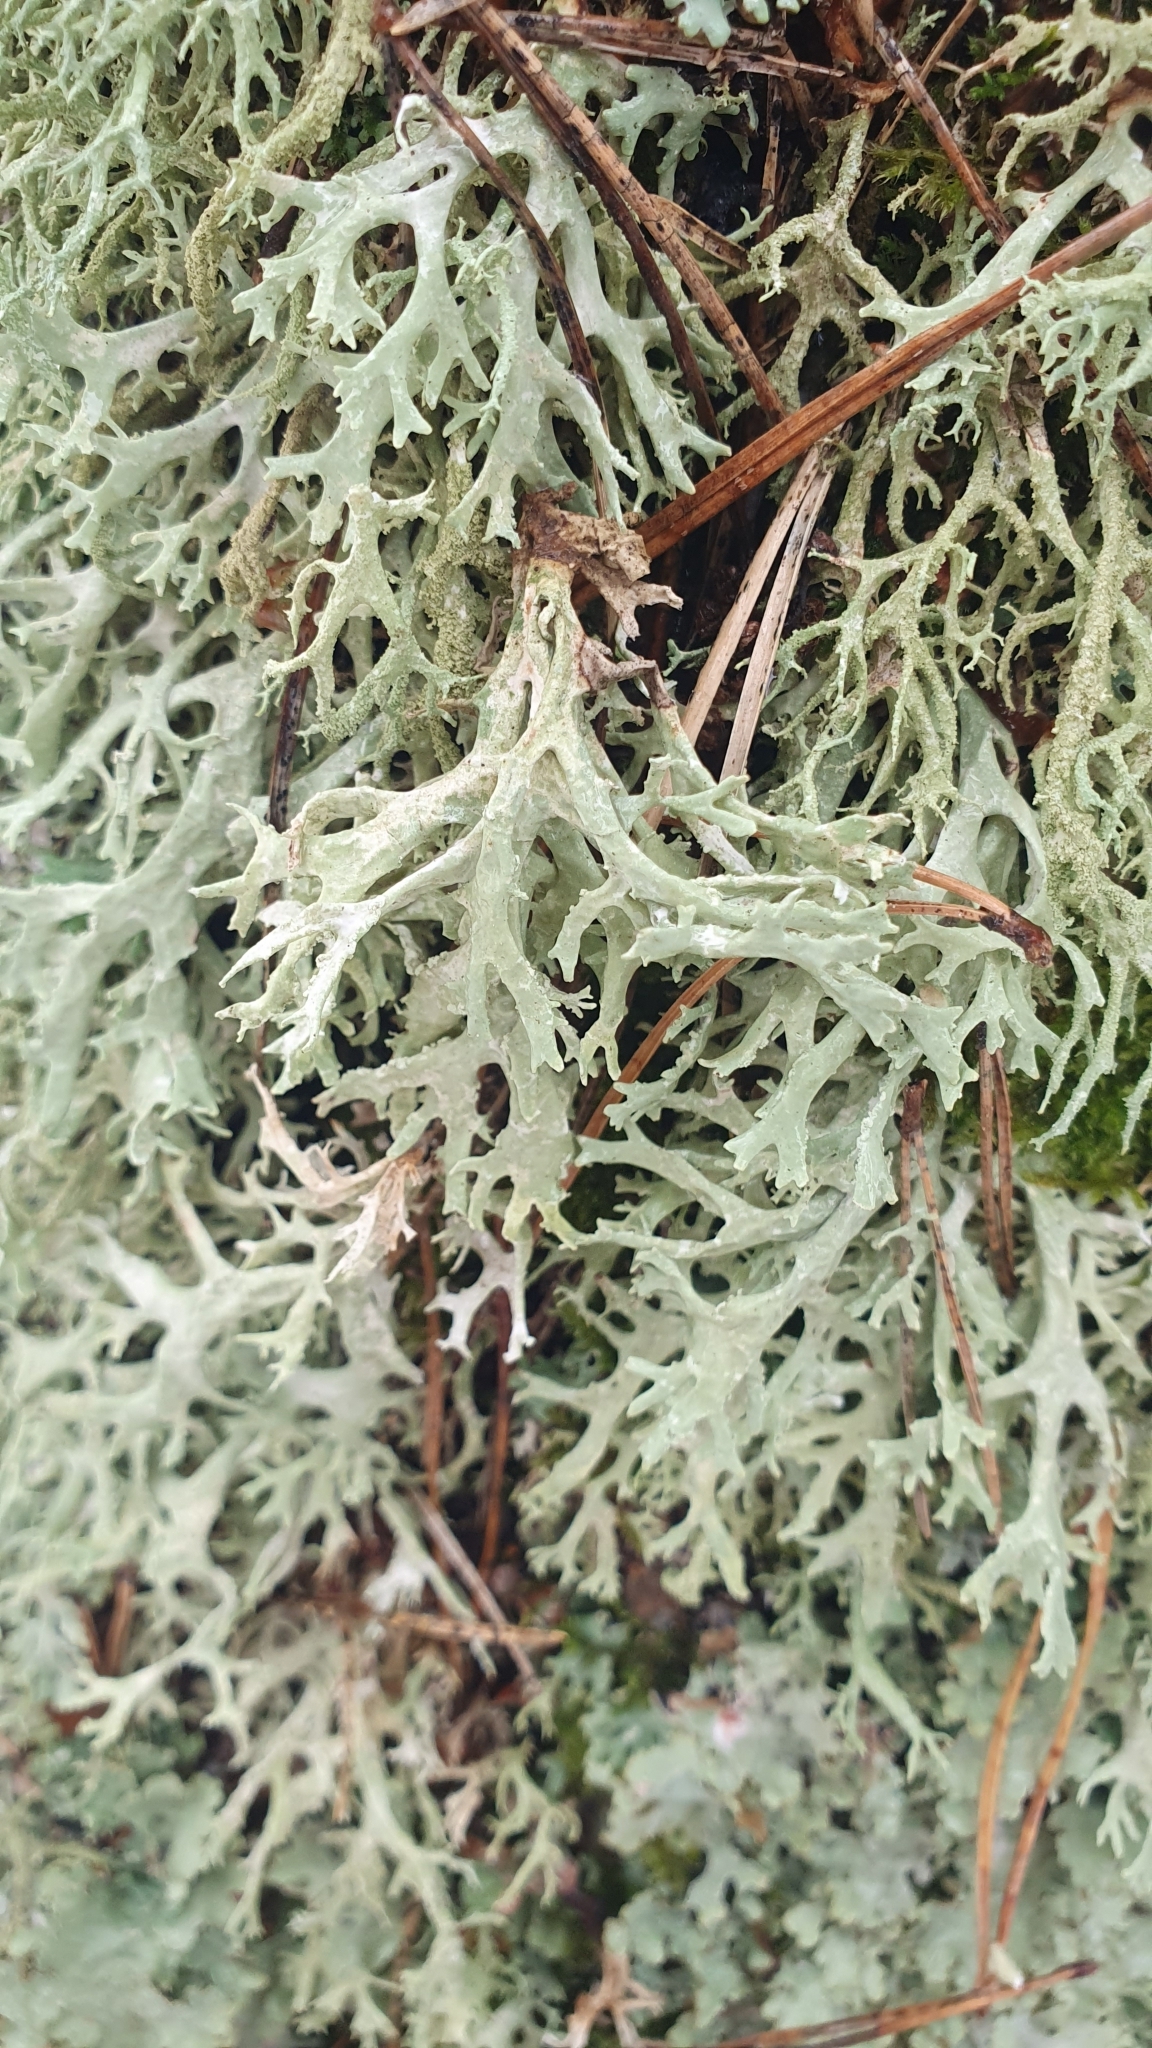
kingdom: Fungi
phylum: Ascomycota
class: Lecanoromycetes
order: Lecanorales
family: Parmeliaceae
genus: Evernia
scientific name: Evernia prunastri
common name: Oak moss
